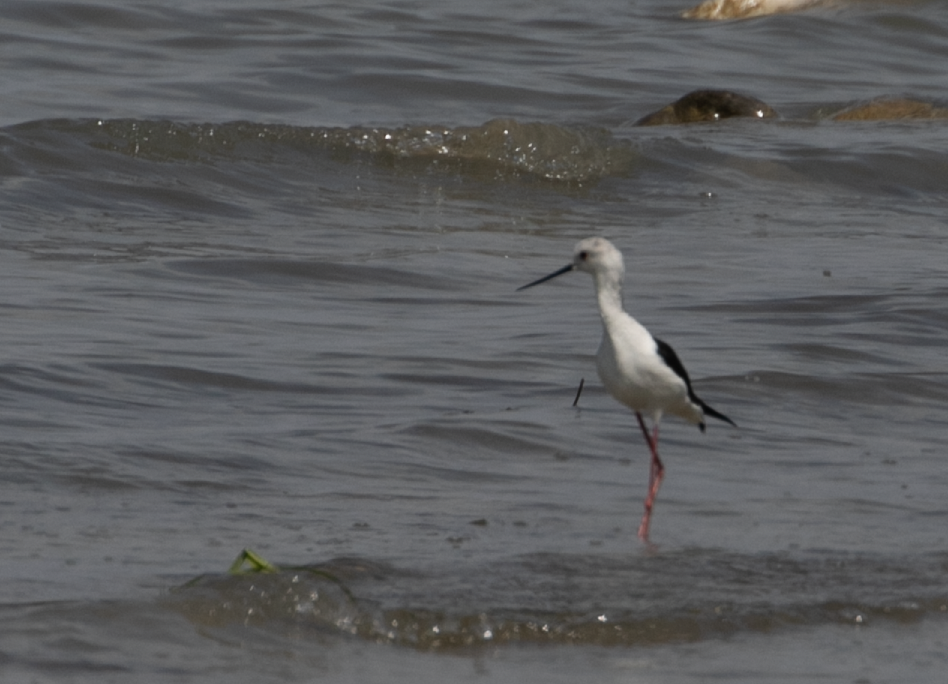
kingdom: Animalia
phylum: Chordata
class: Aves
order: Charadriiformes
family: Recurvirostridae
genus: Himantopus
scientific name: Himantopus himantopus
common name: Black-winged stilt
